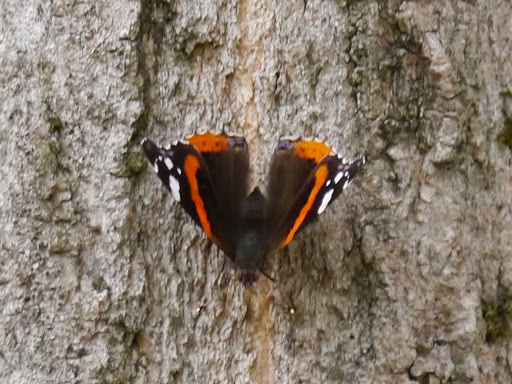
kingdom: Animalia
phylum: Arthropoda
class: Insecta
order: Lepidoptera
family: Nymphalidae
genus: Vanessa
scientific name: Vanessa atalanta
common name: Red admiral
